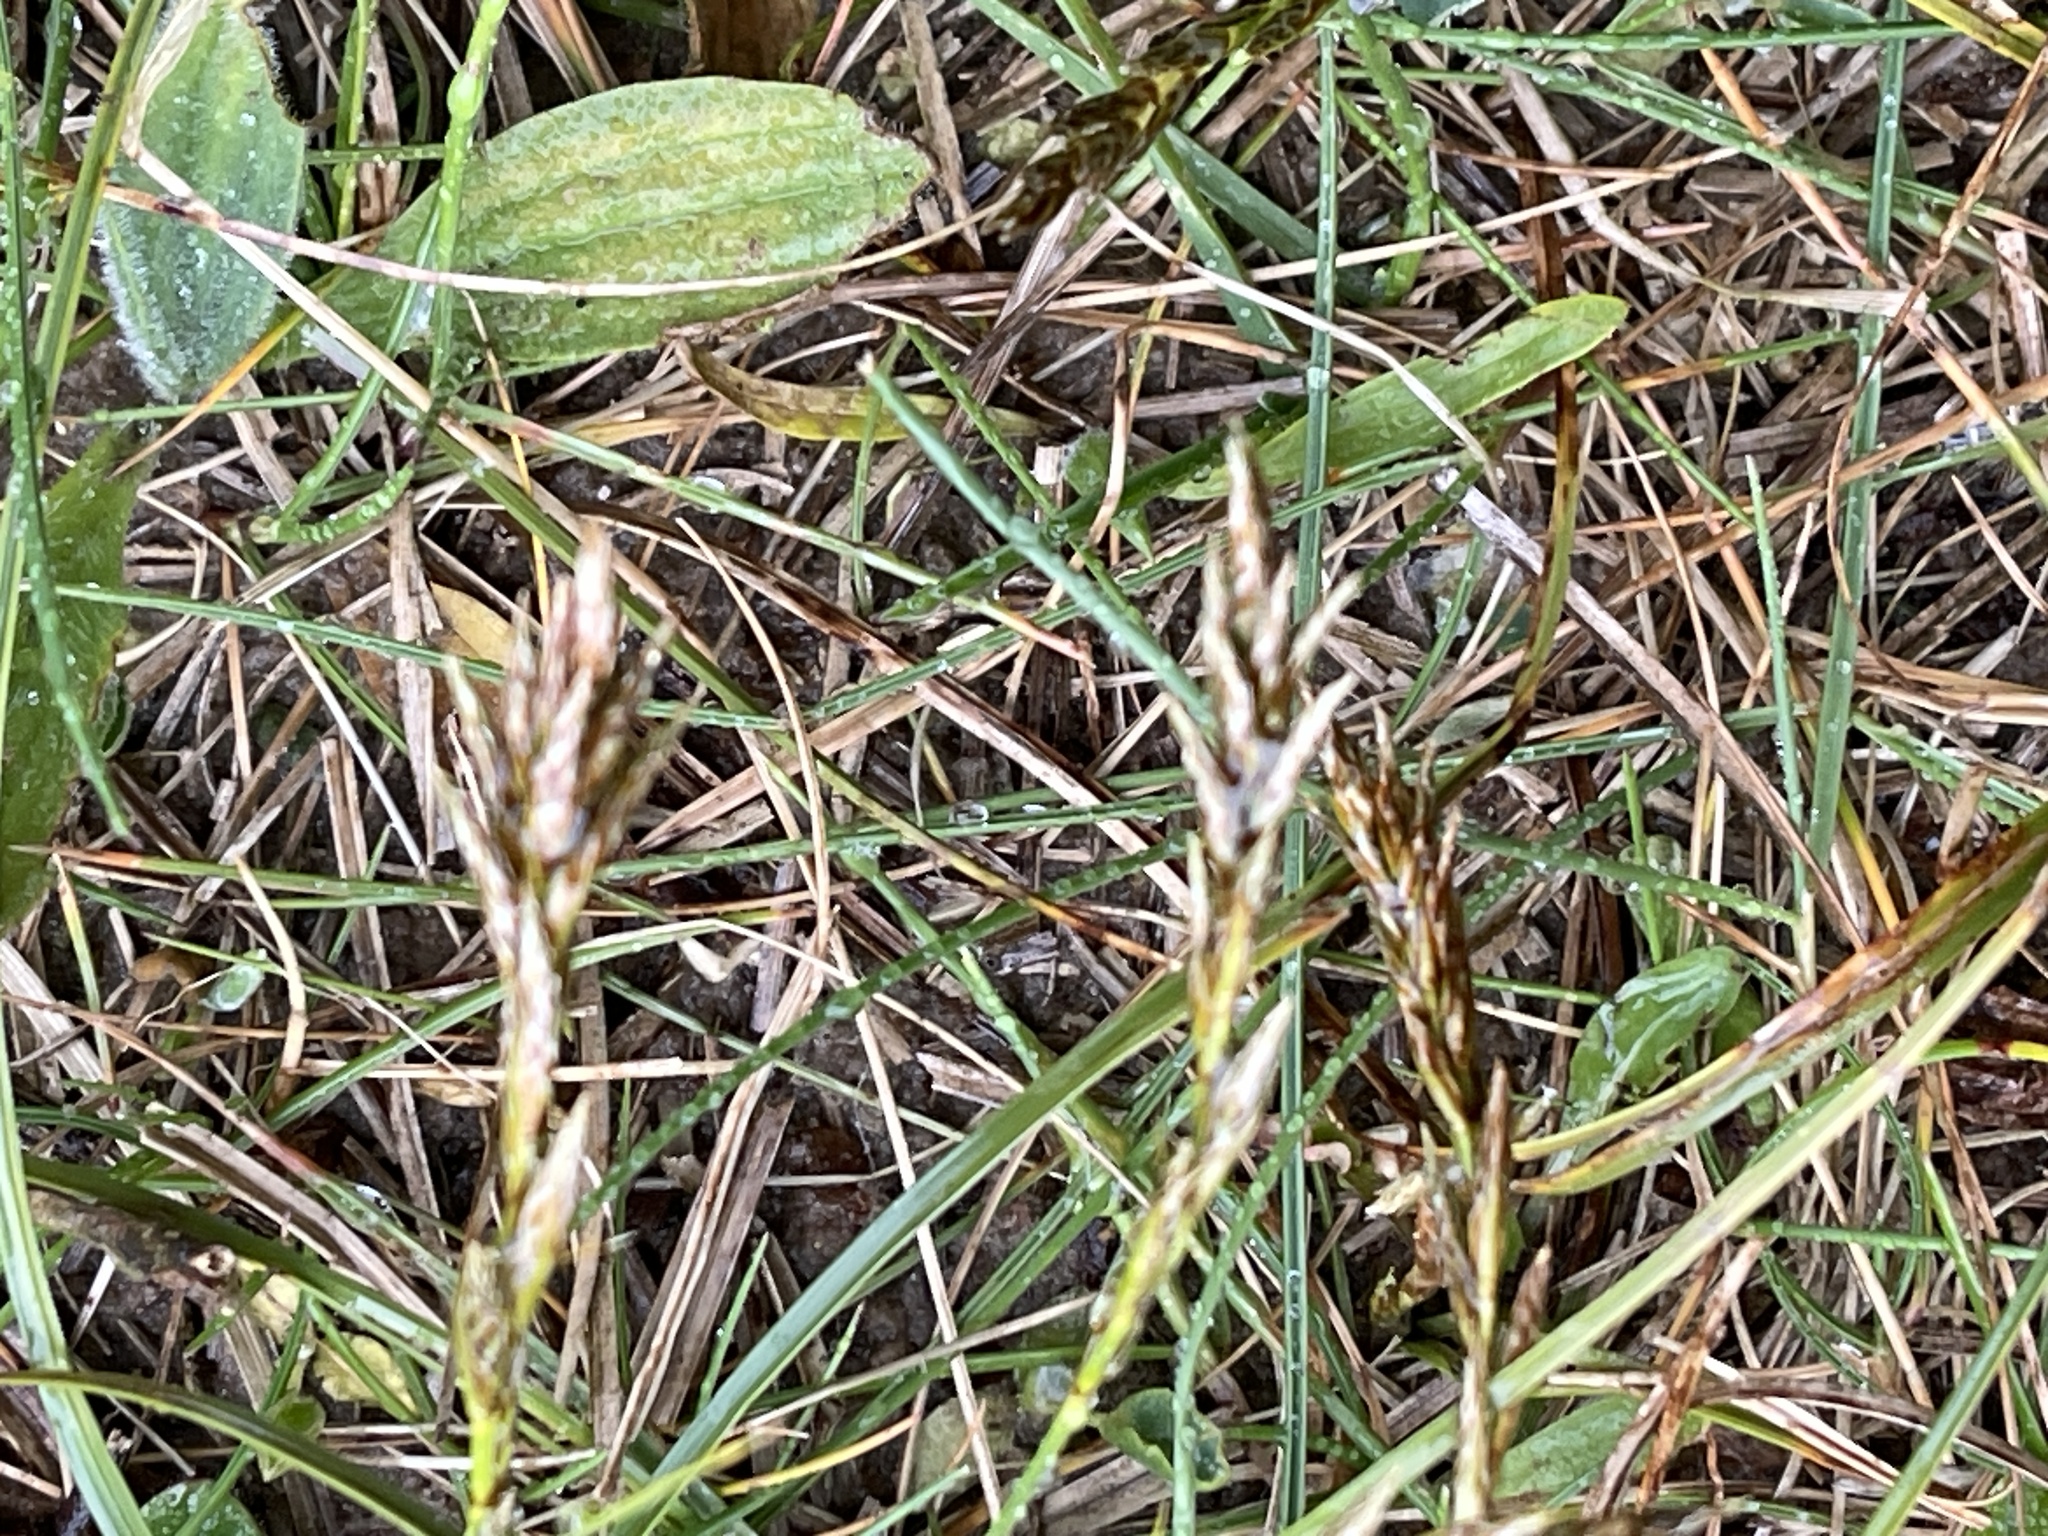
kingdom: Plantae
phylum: Tracheophyta
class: Liliopsida
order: Poales
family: Cyperaceae
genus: Carex
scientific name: Carex arenaria
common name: Sand sedge
